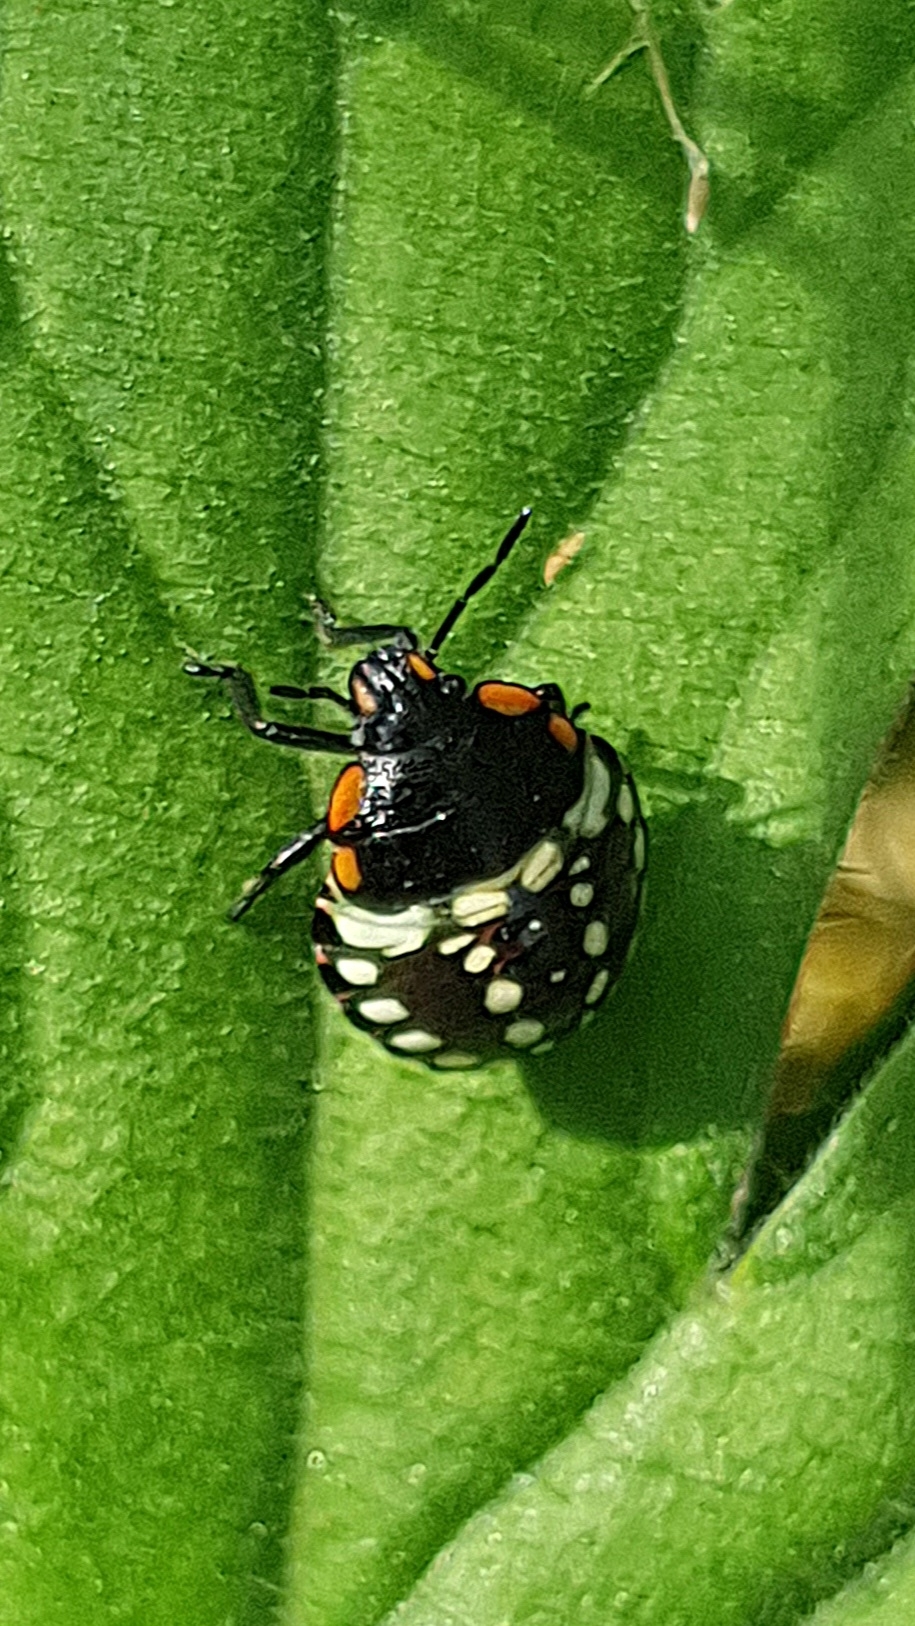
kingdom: Animalia
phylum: Arthropoda
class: Insecta
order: Hemiptera
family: Pentatomidae
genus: Nezara
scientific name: Nezara viridula
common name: Southern green stink bug
